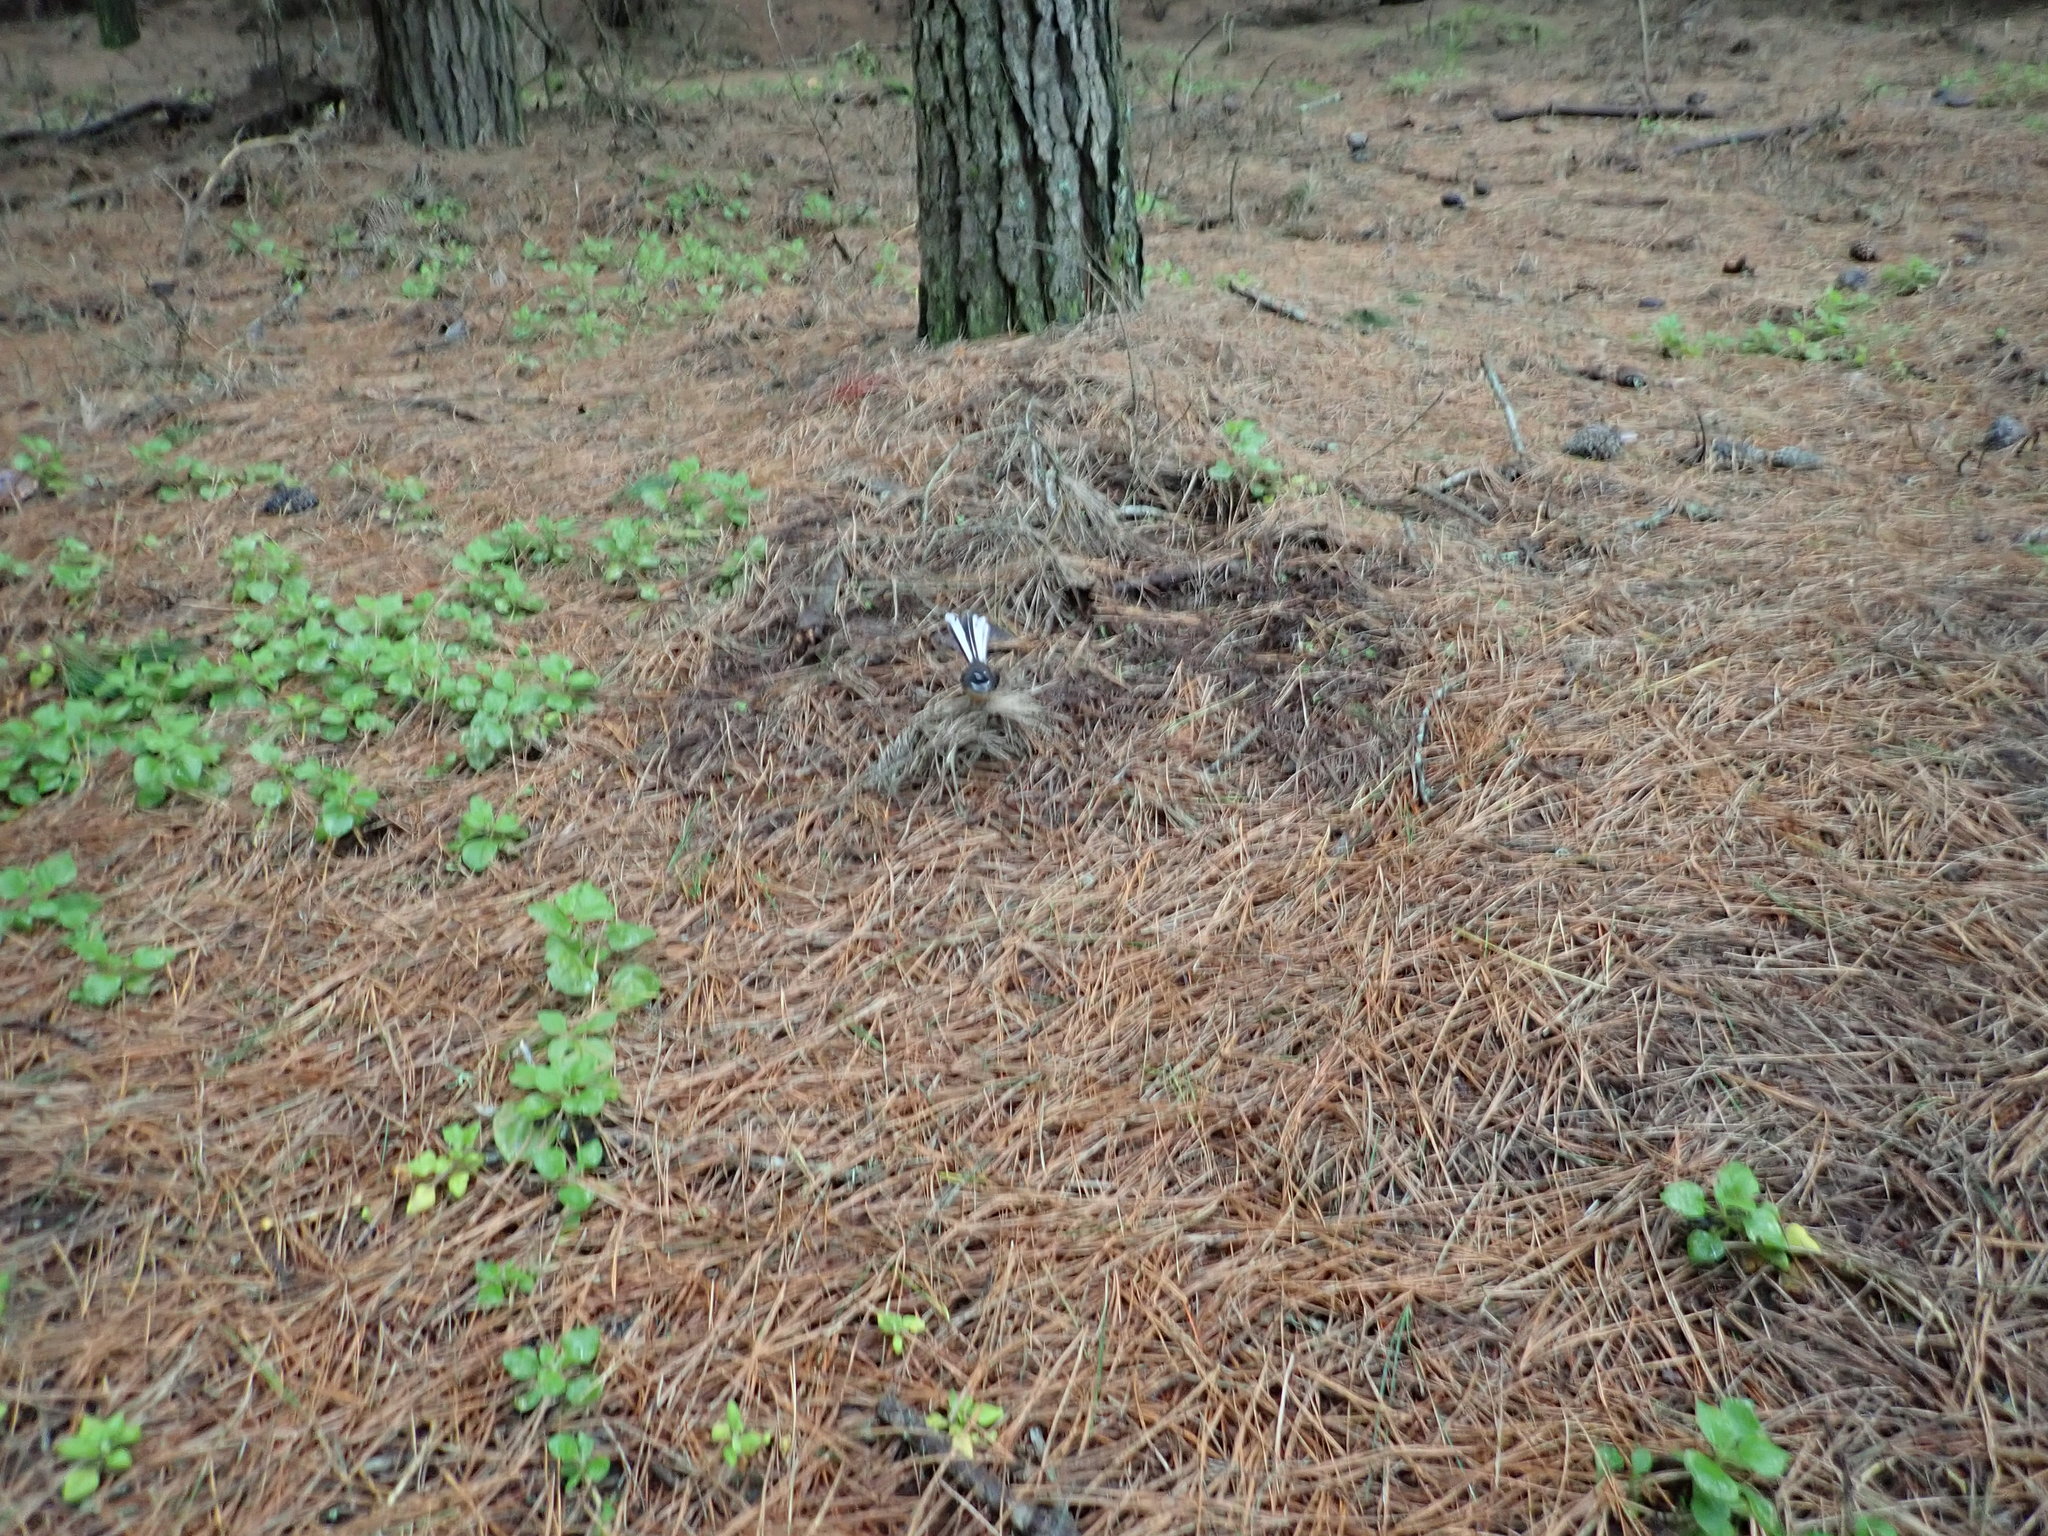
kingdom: Animalia
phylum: Chordata
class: Aves
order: Passeriformes
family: Rhipiduridae
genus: Rhipidura
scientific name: Rhipidura fuliginosa
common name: New zealand fantail
